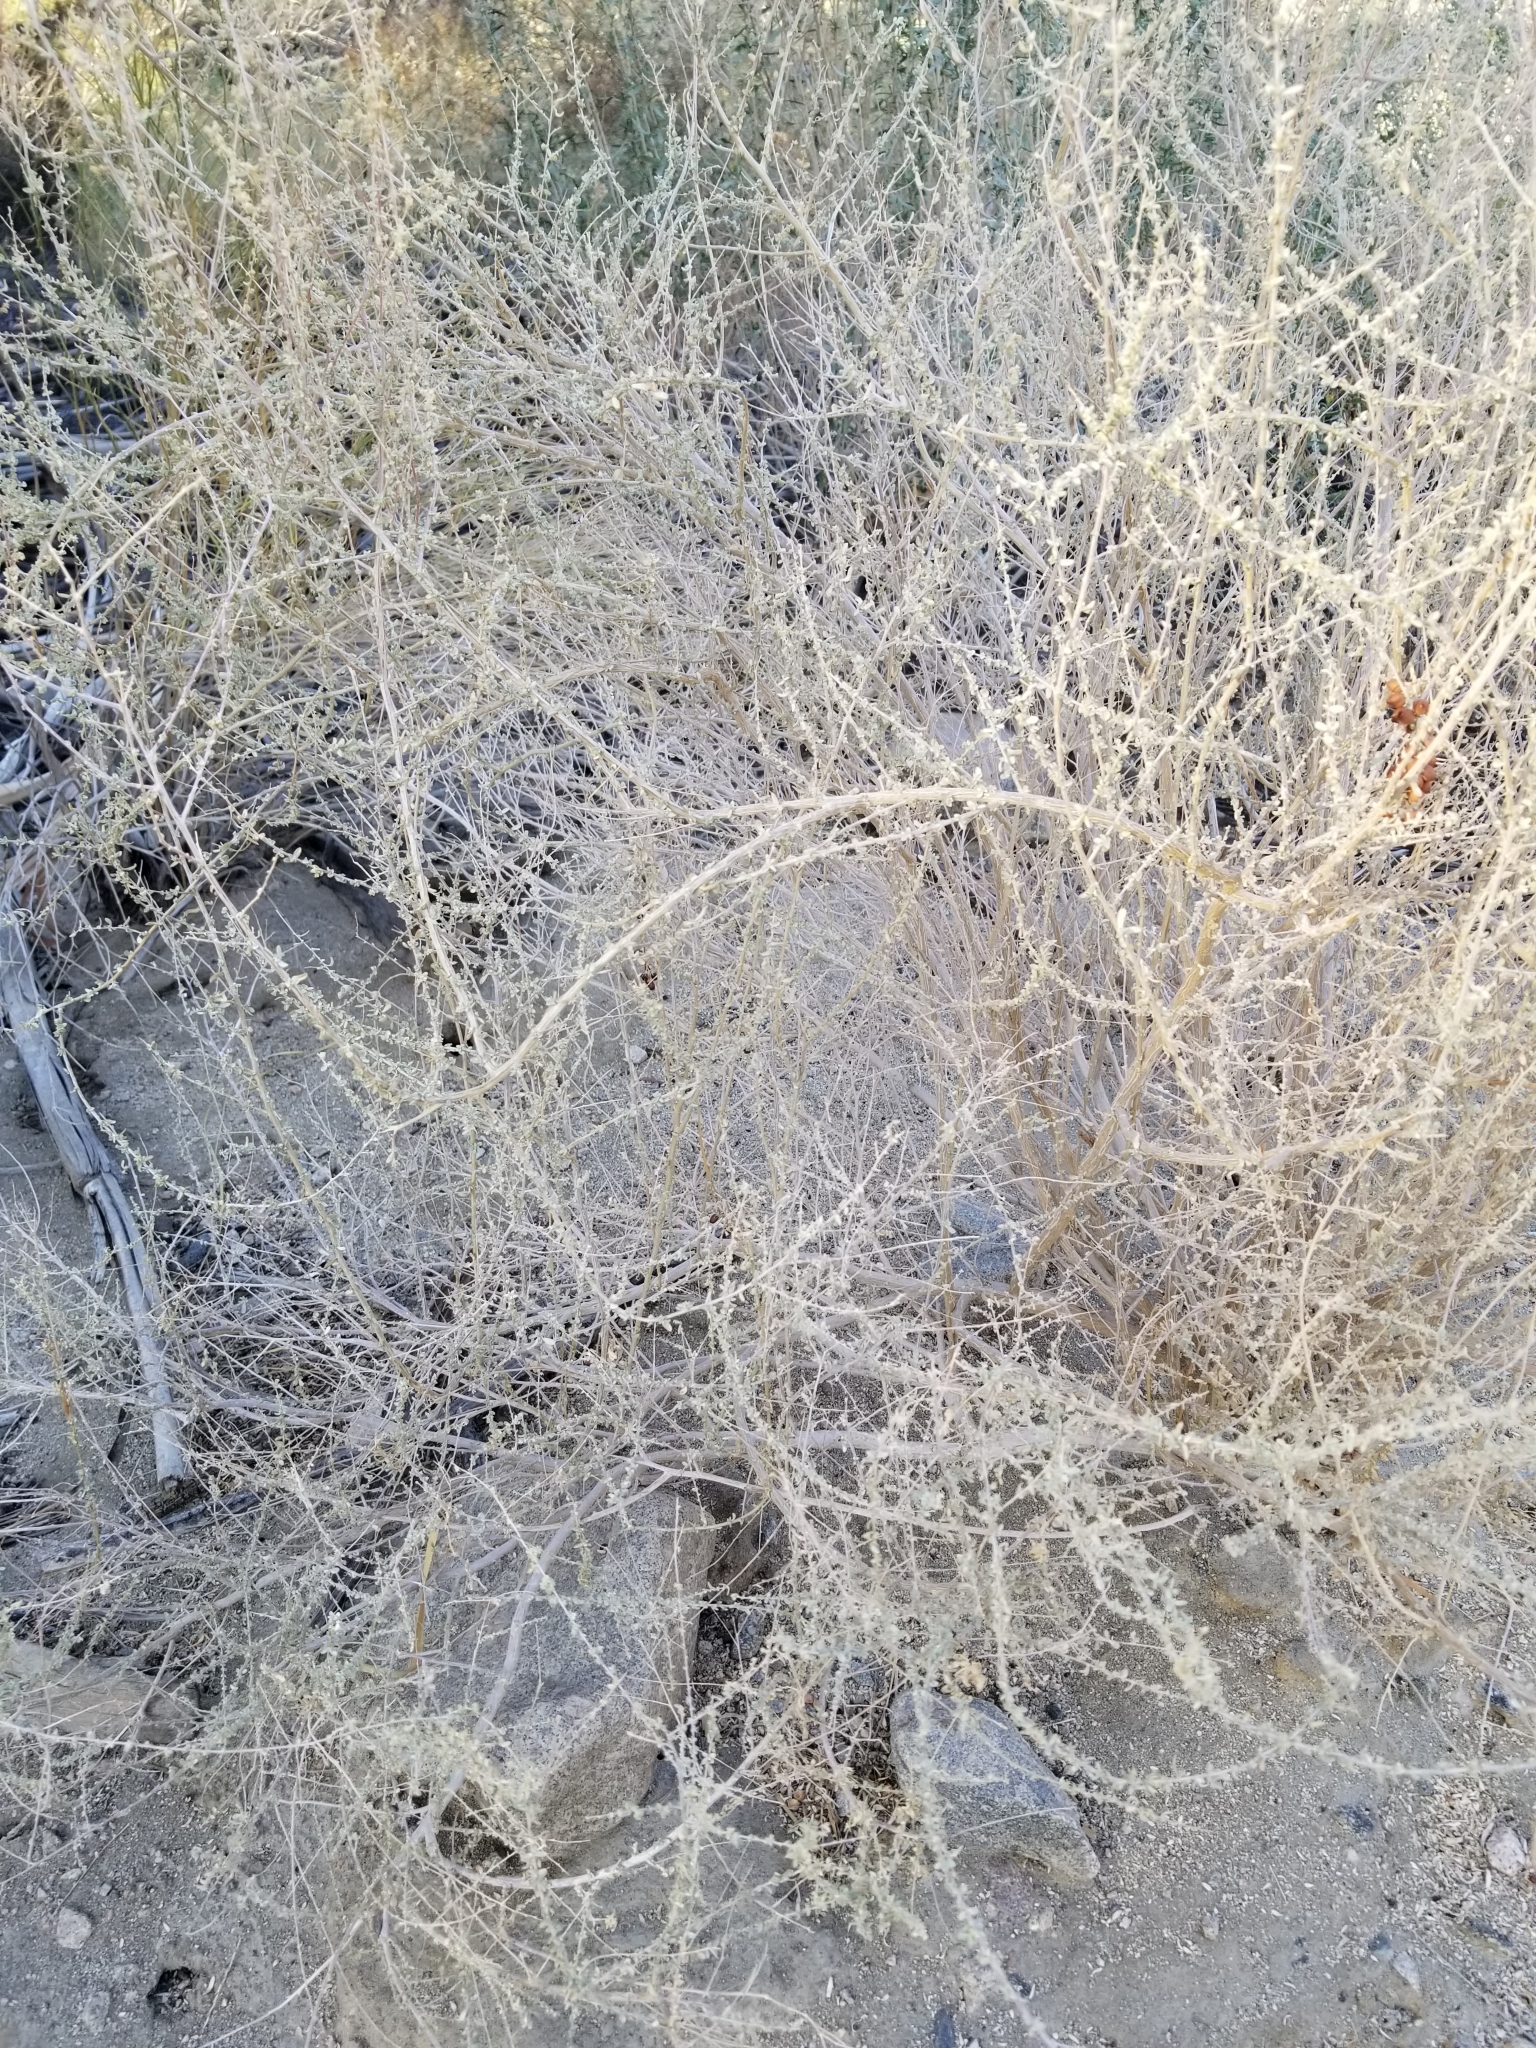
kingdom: Plantae
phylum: Tracheophyta
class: Magnoliopsida
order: Caryophyllales
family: Amaranthaceae
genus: Atriplex
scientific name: Atriplex polycarpa
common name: Desert saltbush
